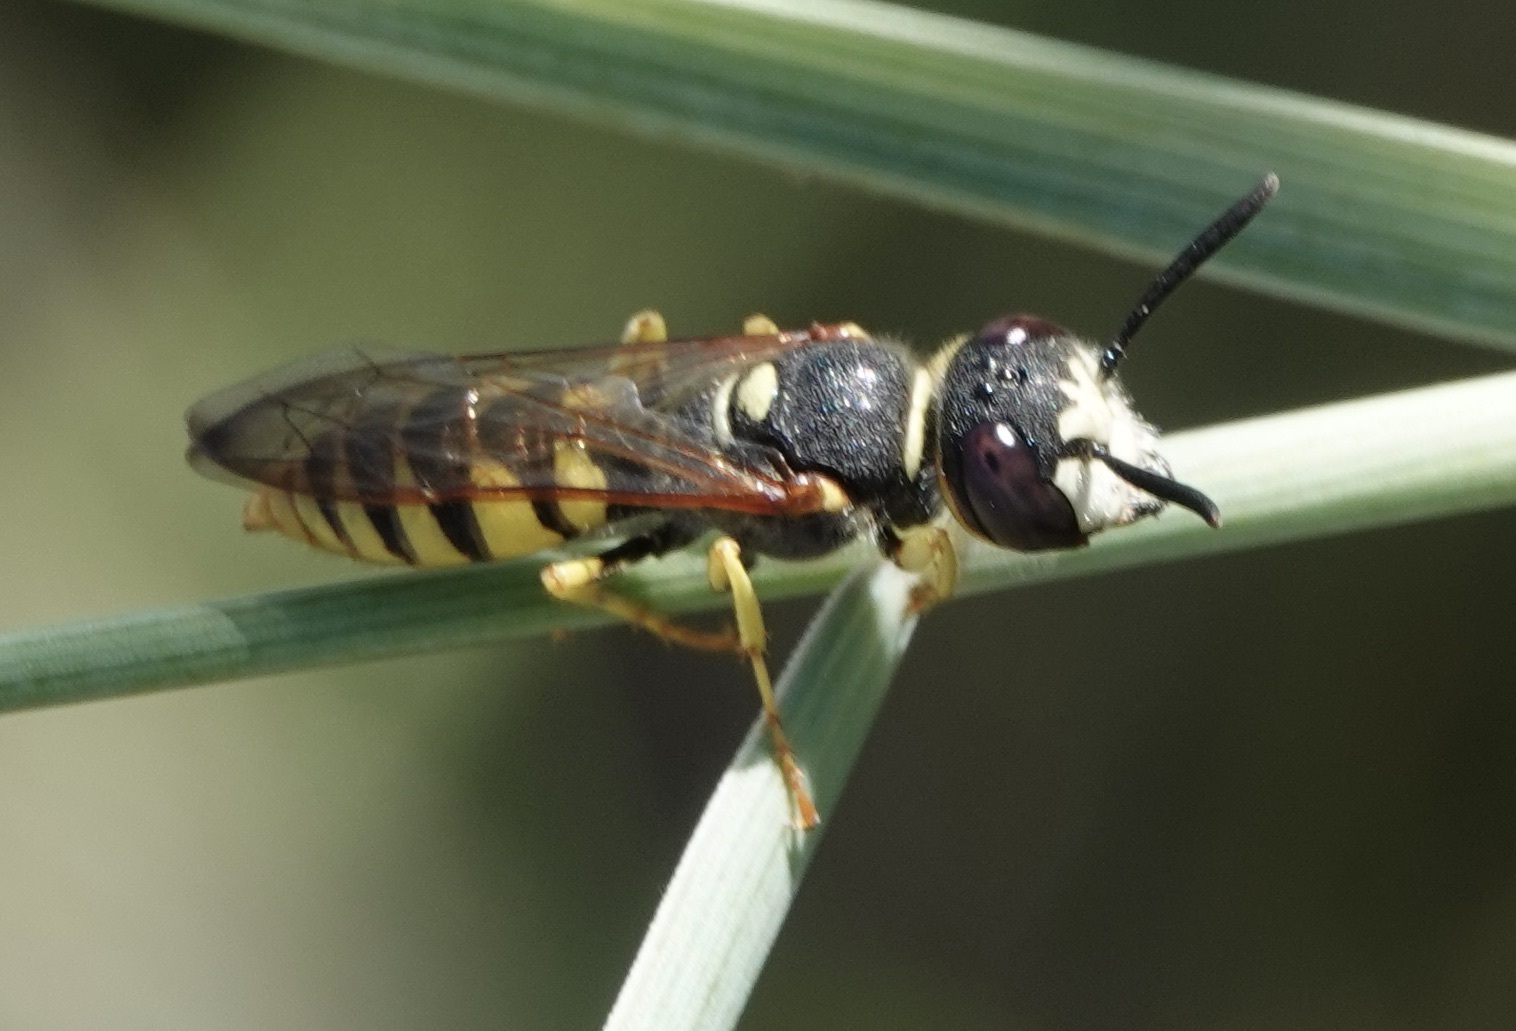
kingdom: Animalia
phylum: Arthropoda
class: Insecta
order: Hymenoptera
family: Crabronidae
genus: Philanthus
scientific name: Philanthus triangulum
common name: Bee wolf
